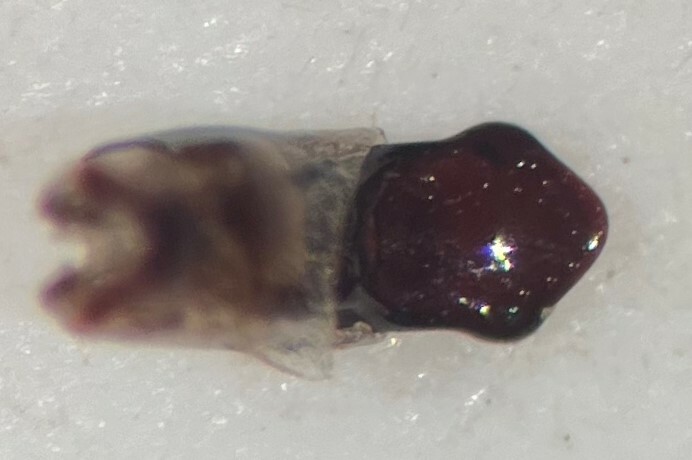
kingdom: Animalia
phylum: Arthropoda
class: Insecta
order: Hemiptera
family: Gerridae
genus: Aquarius
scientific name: Aquarius amplus
